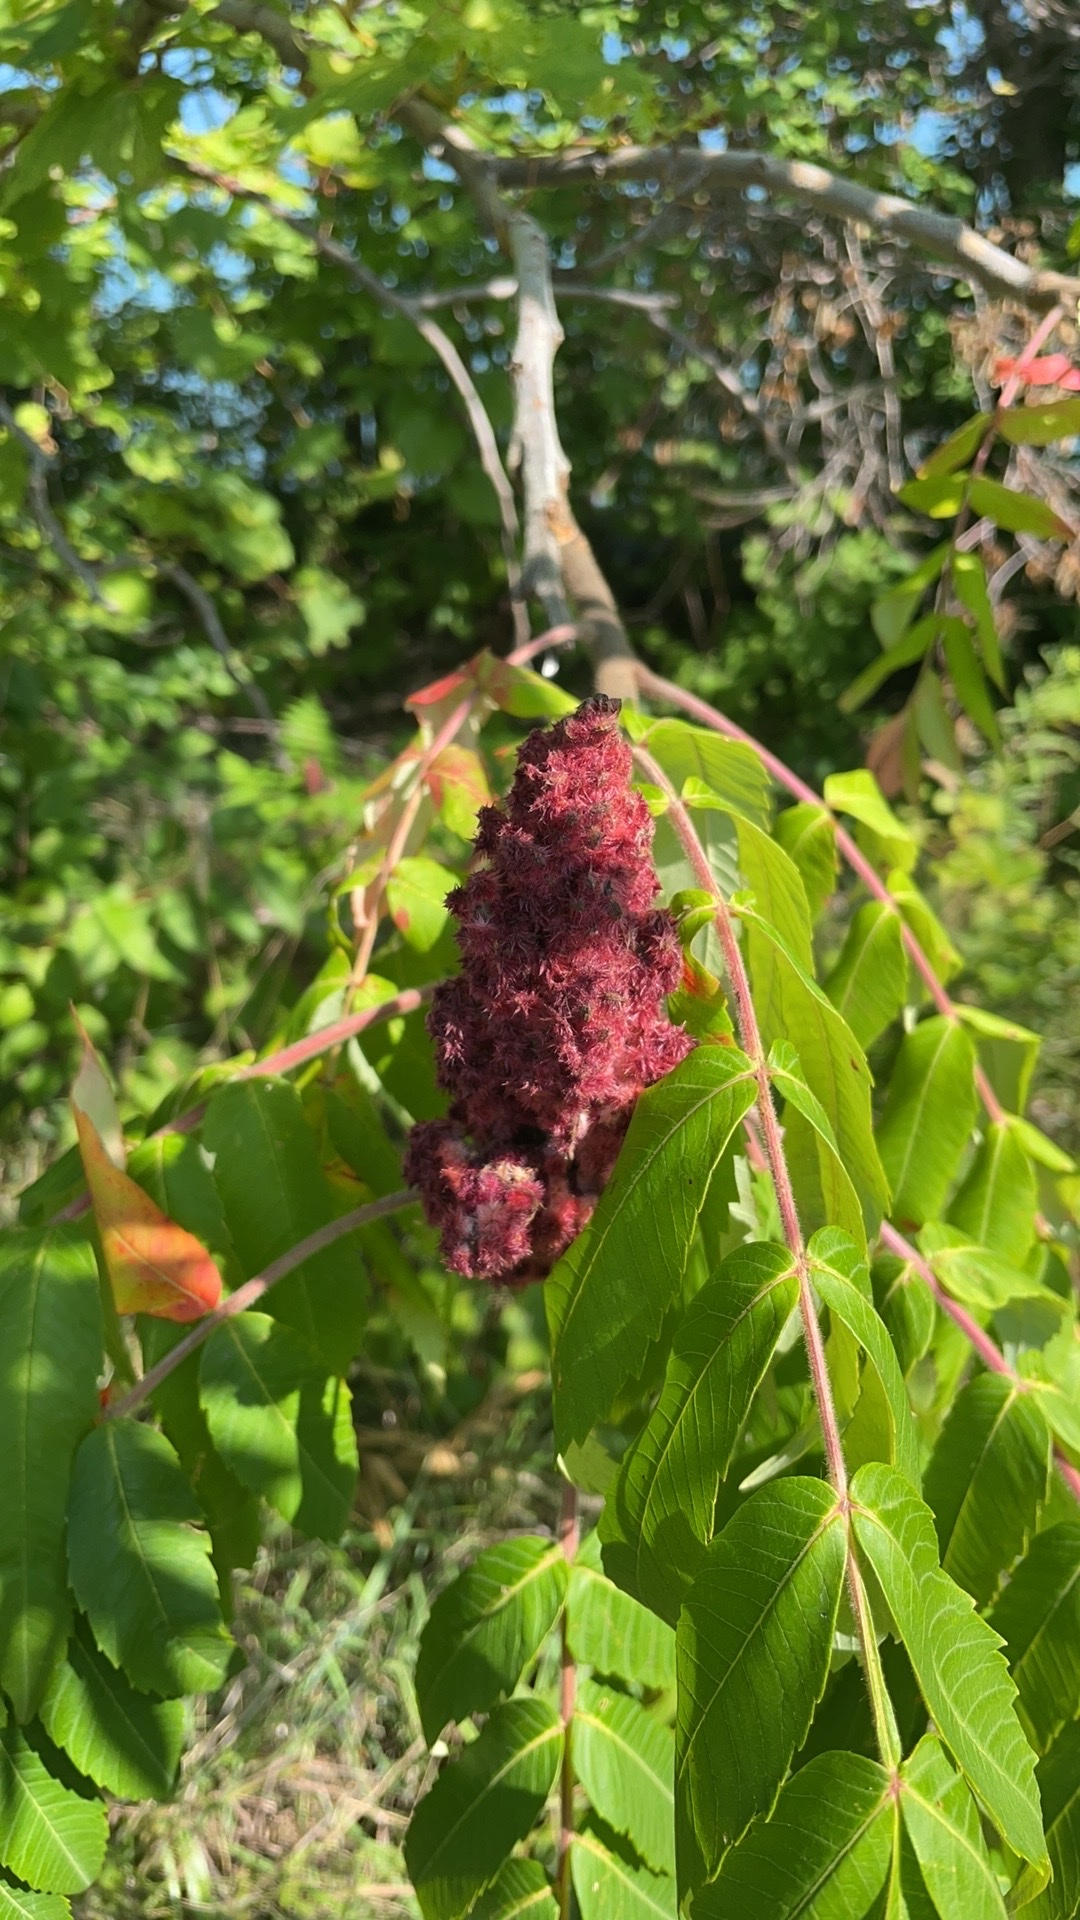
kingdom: Plantae
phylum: Tracheophyta
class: Magnoliopsida
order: Sapindales
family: Anacardiaceae
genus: Rhus
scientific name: Rhus typhina
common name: Staghorn sumac
